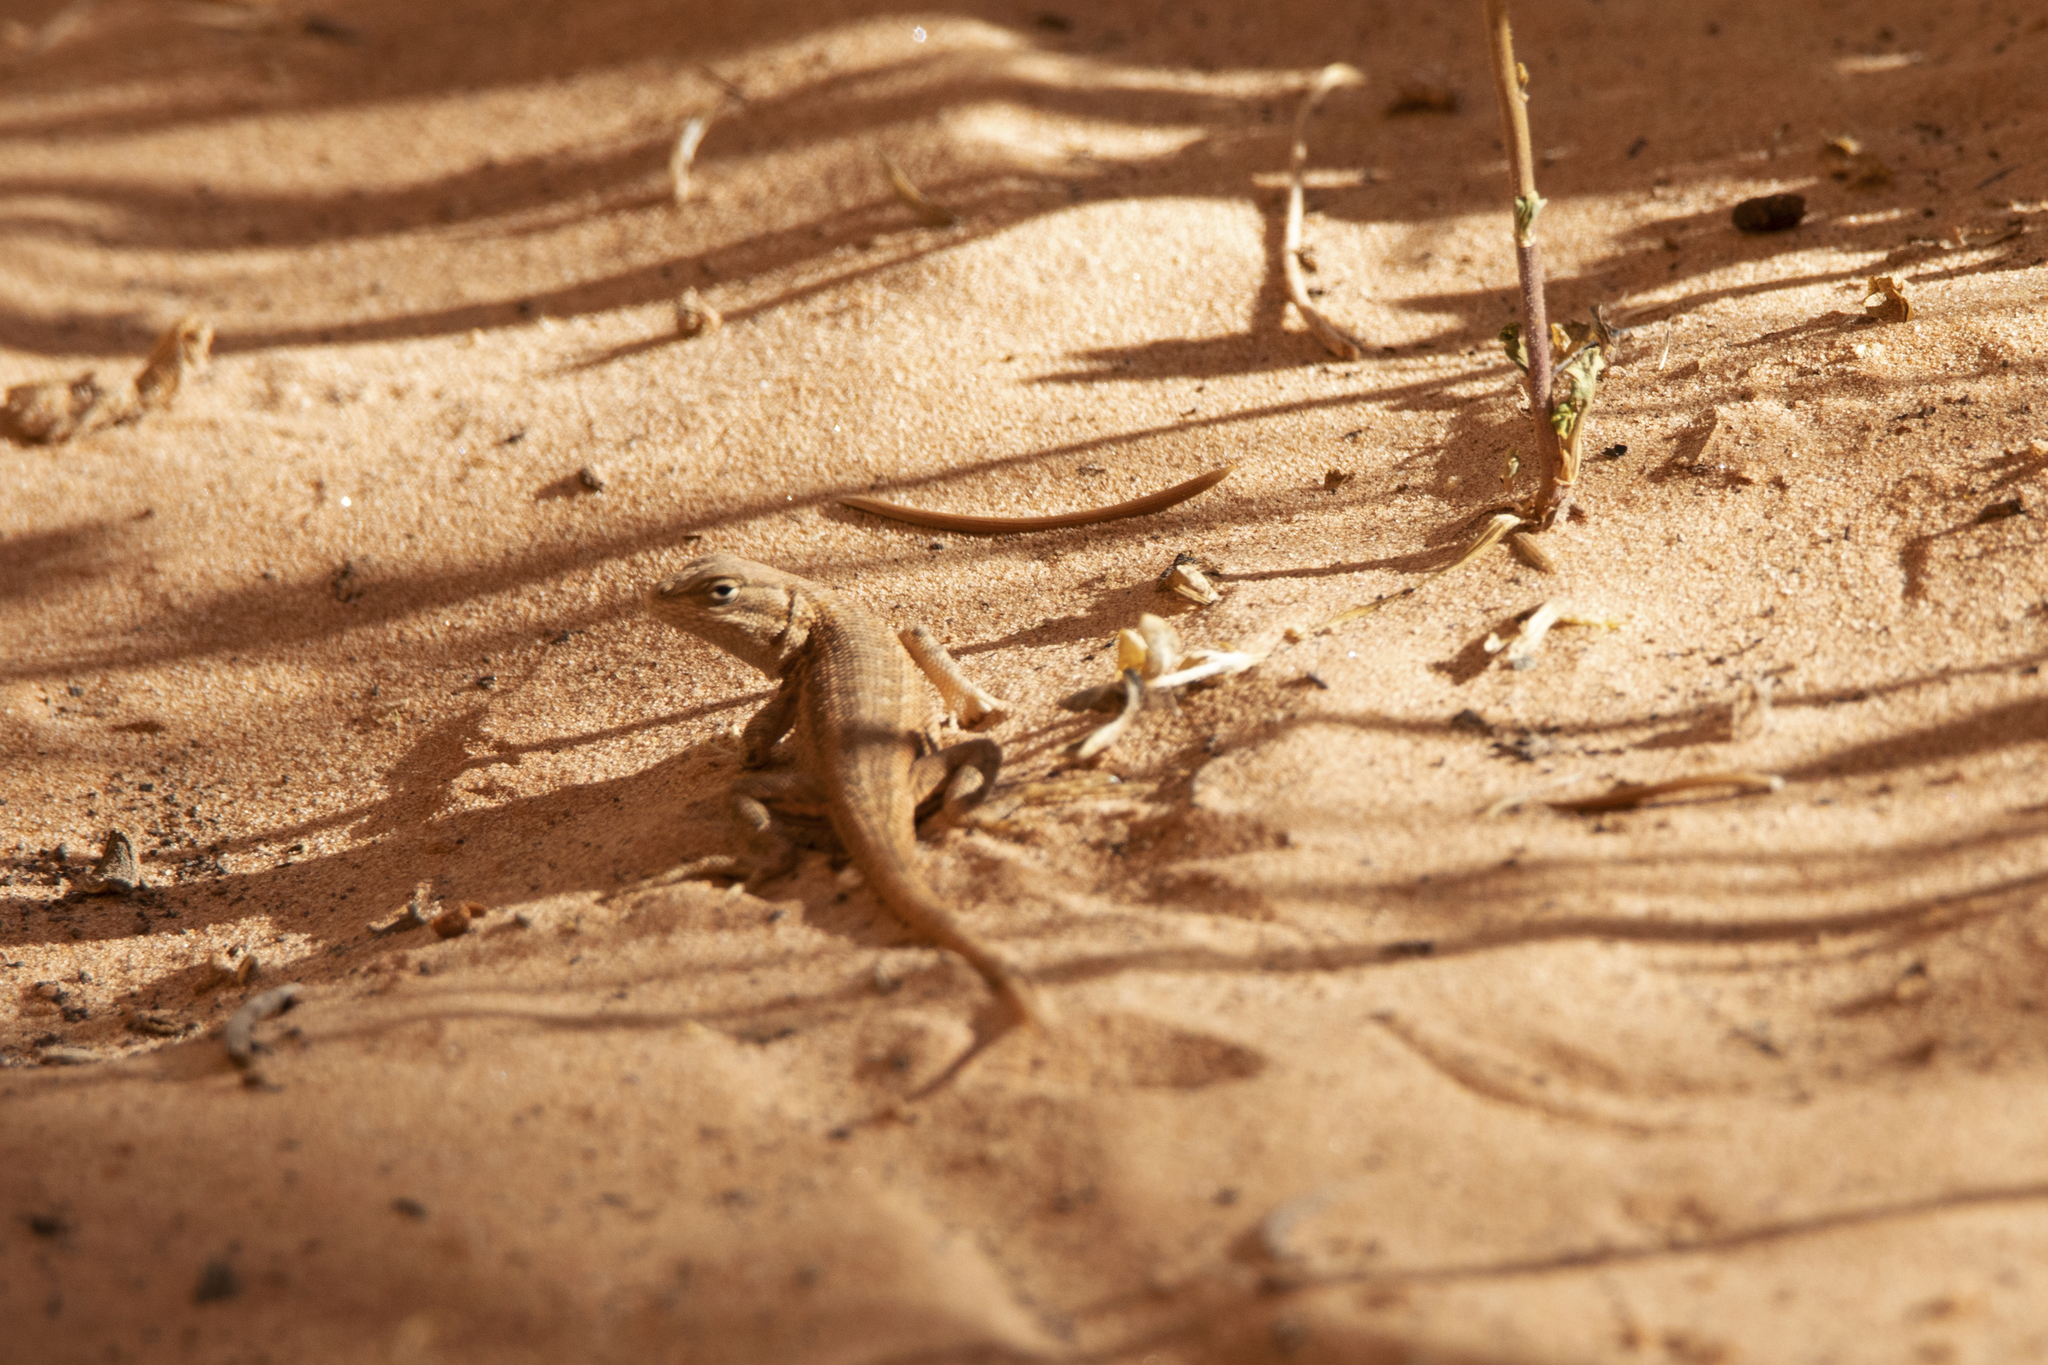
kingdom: Animalia
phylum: Chordata
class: Squamata
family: Phrynosomatidae
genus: Sceloporus
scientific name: Sceloporus graciosus
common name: Sagebrush lizard
